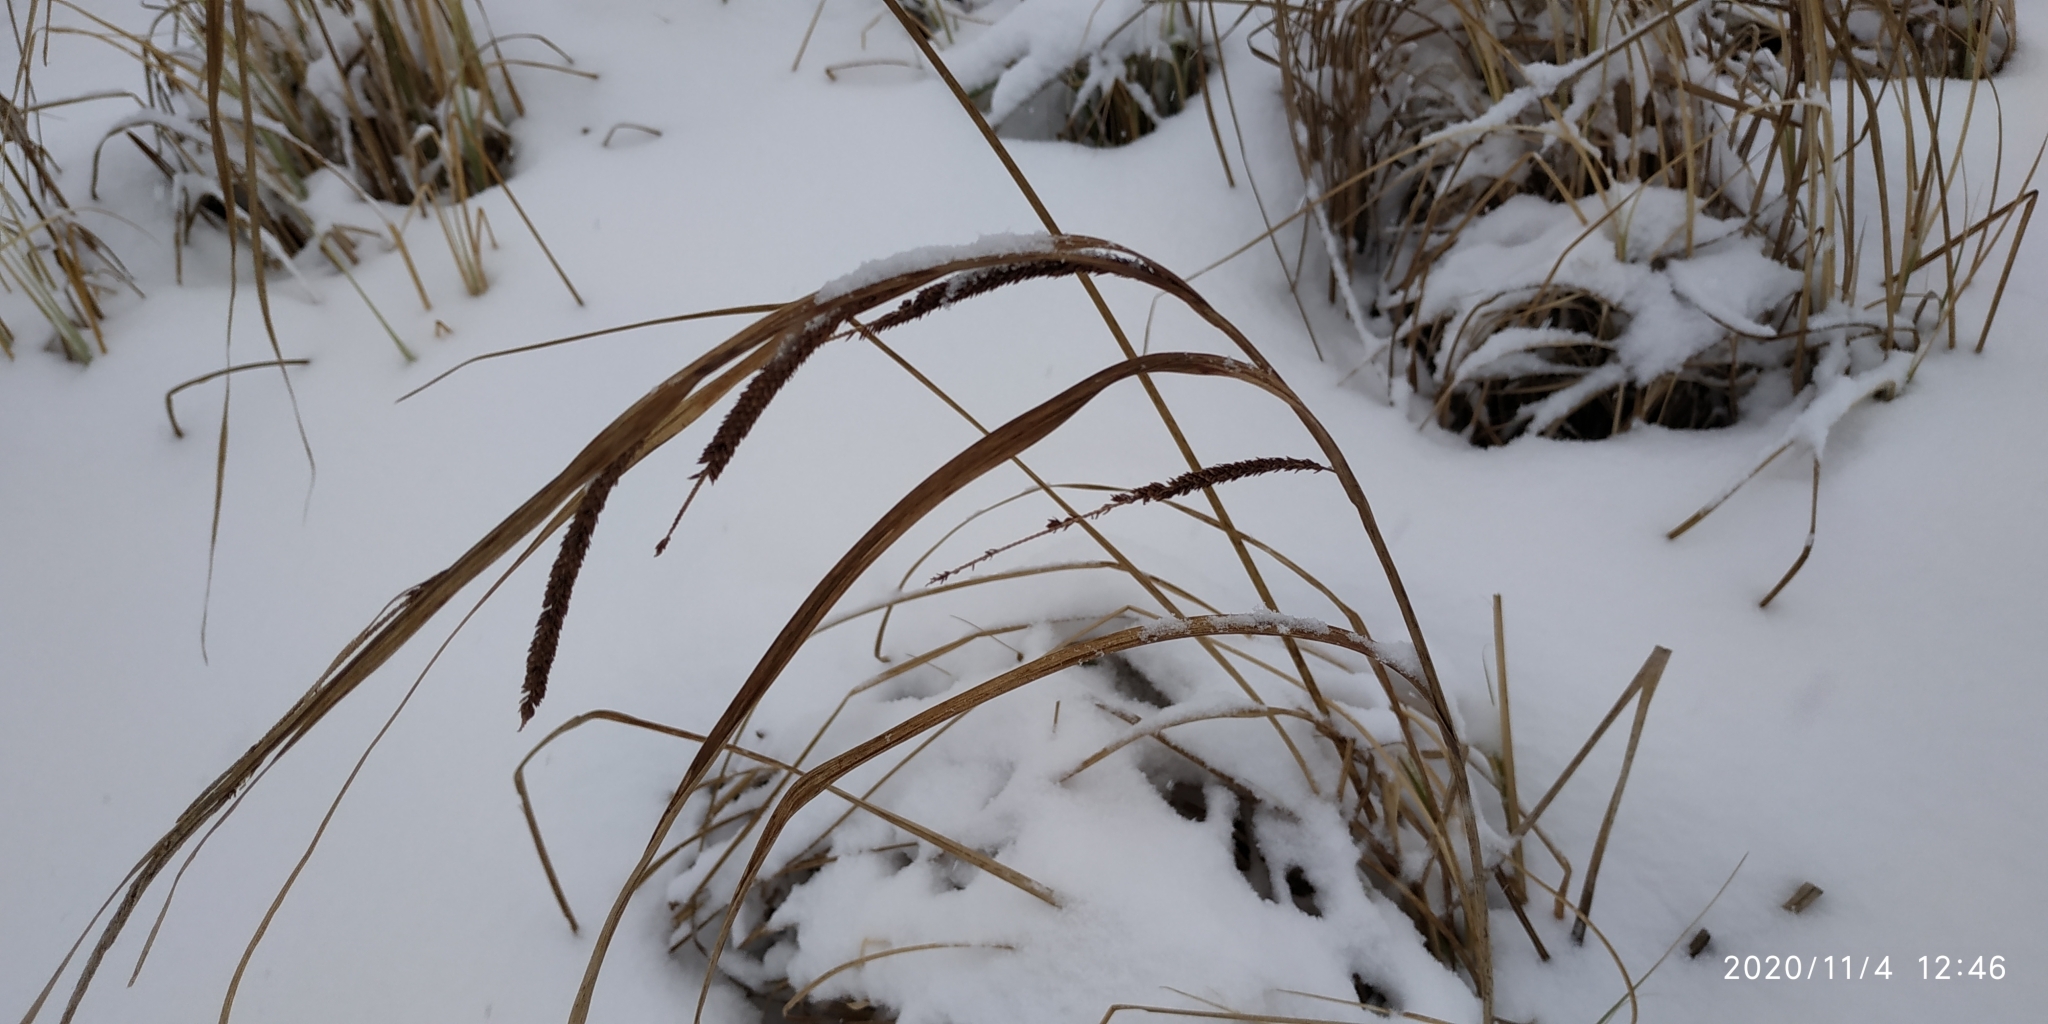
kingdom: Plantae
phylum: Tracheophyta
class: Liliopsida
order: Poales
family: Cyperaceae
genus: Carex
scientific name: Carex aquatilis
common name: Water sedge
